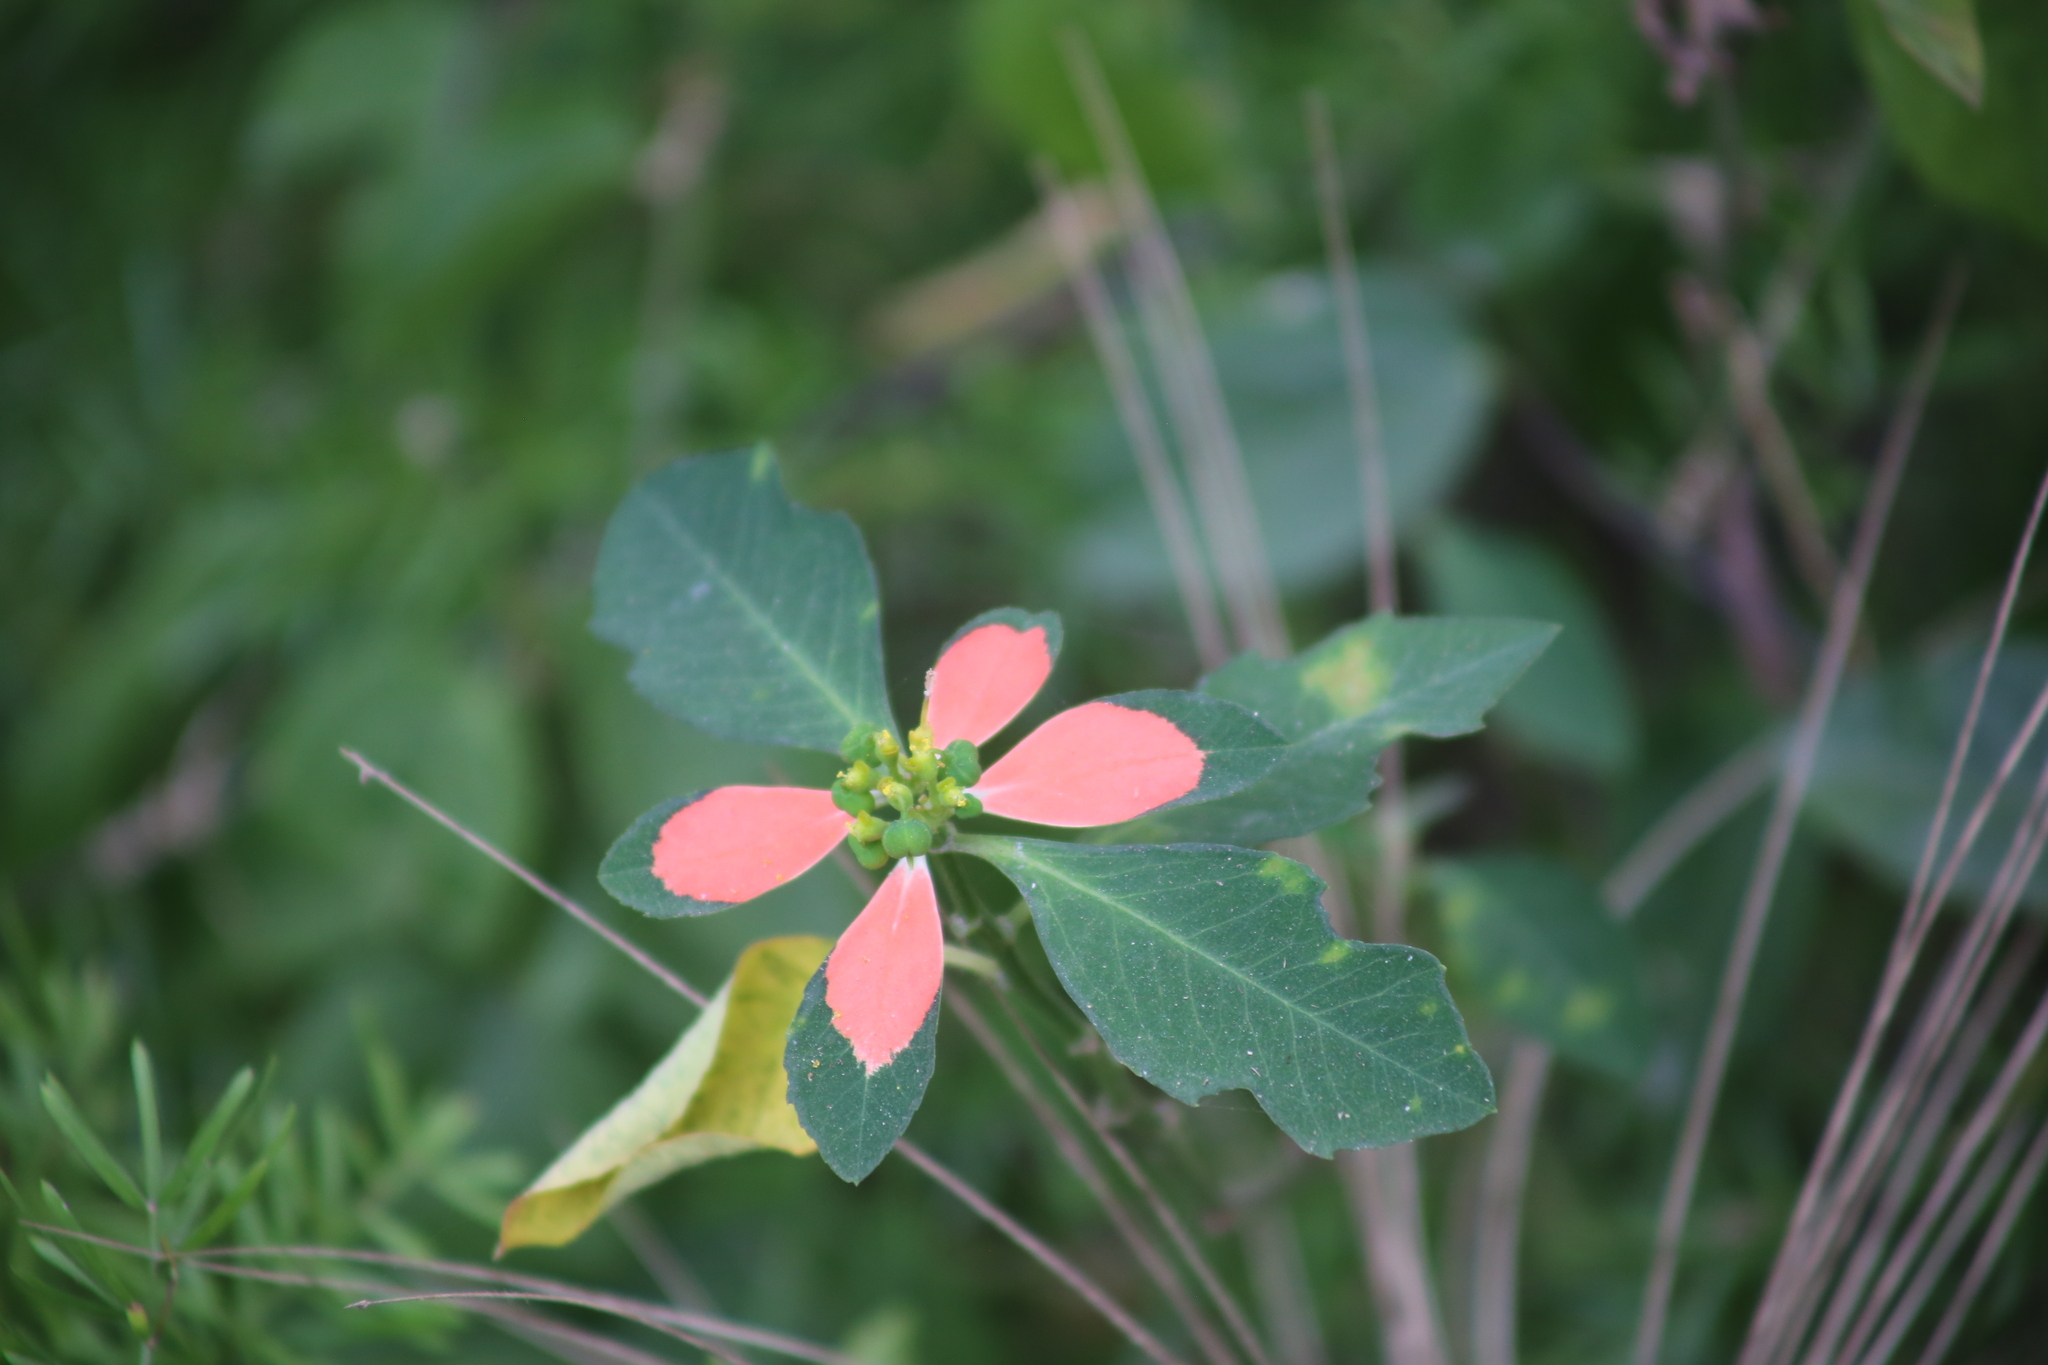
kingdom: Plantae
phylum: Tracheophyta
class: Magnoliopsida
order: Malpighiales
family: Euphorbiaceae
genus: Euphorbia
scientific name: Euphorbia heterophylla
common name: Mexican fireplant
